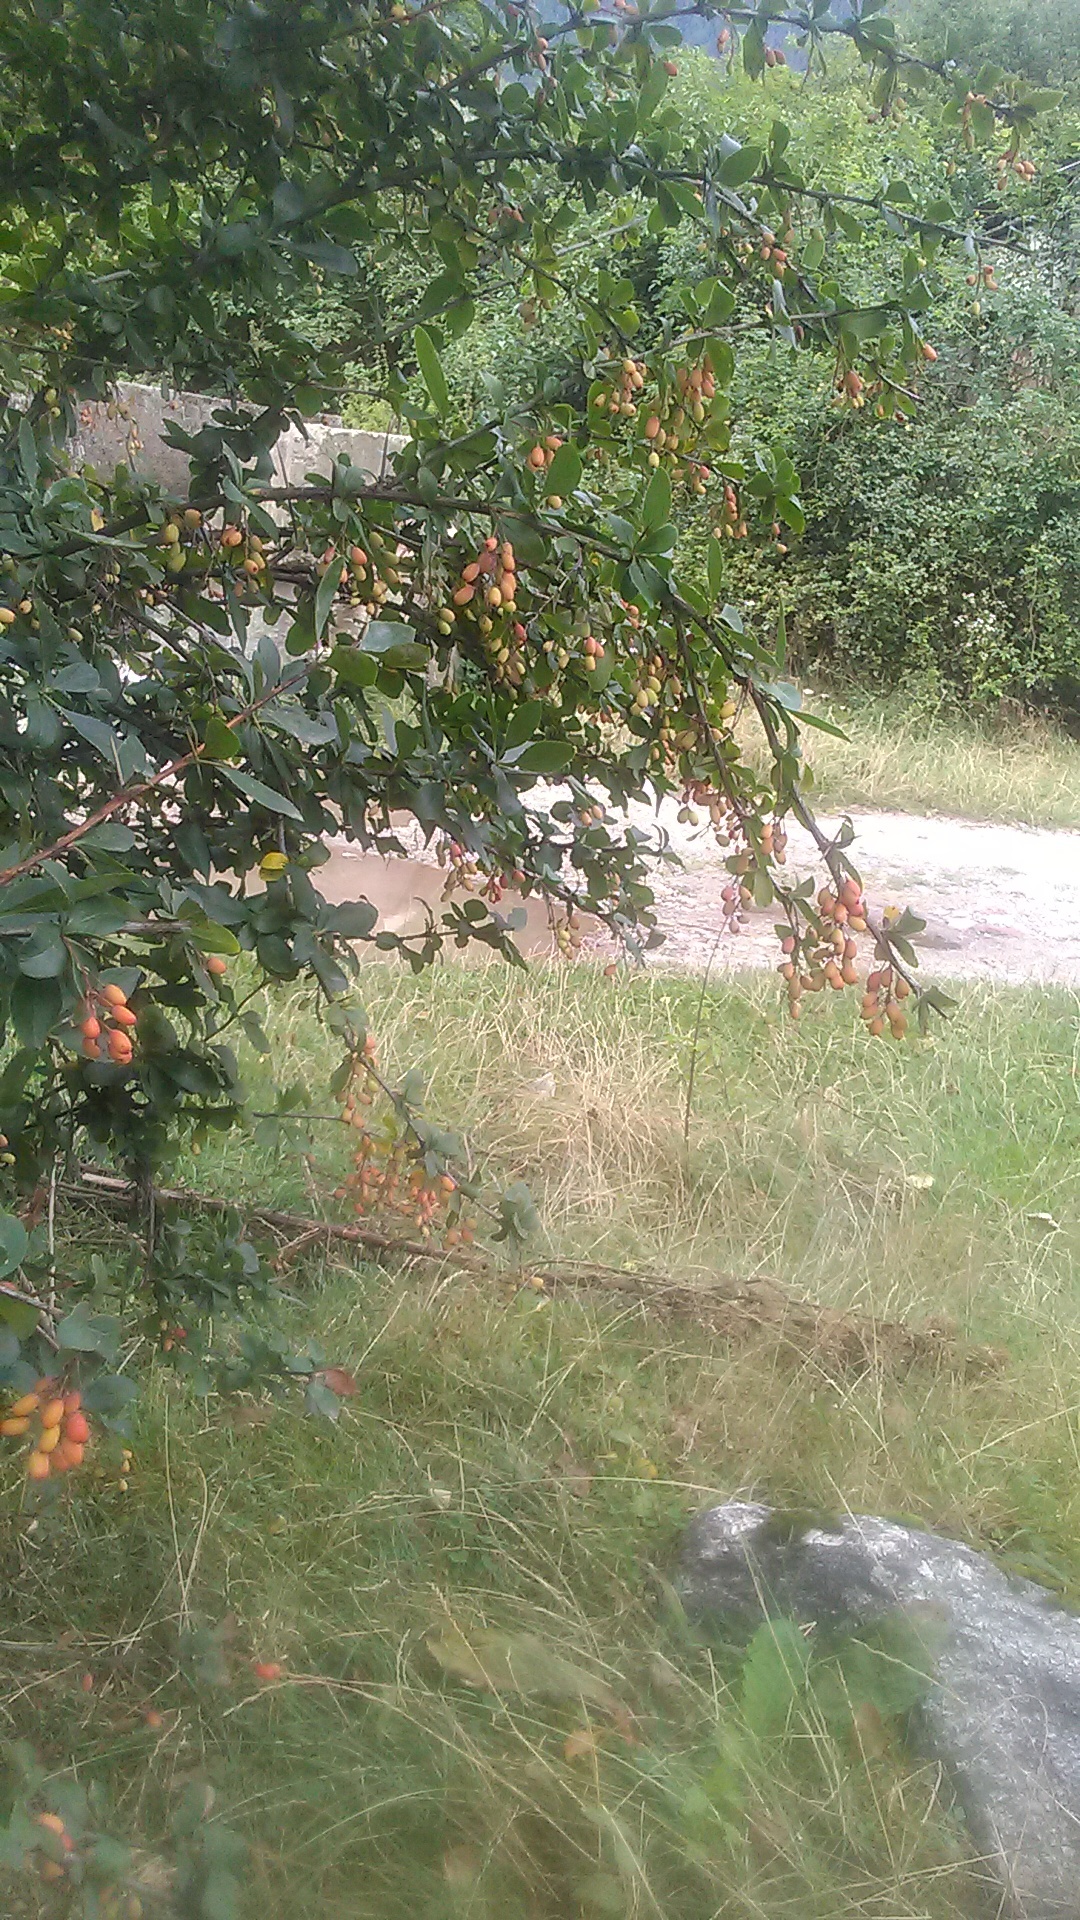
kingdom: Plantae
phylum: Tracheophyta
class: Magnoliopsida
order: Ranunculales
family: Berberidaceae
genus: Berberis
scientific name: Berberis vulgaris
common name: Barberry
